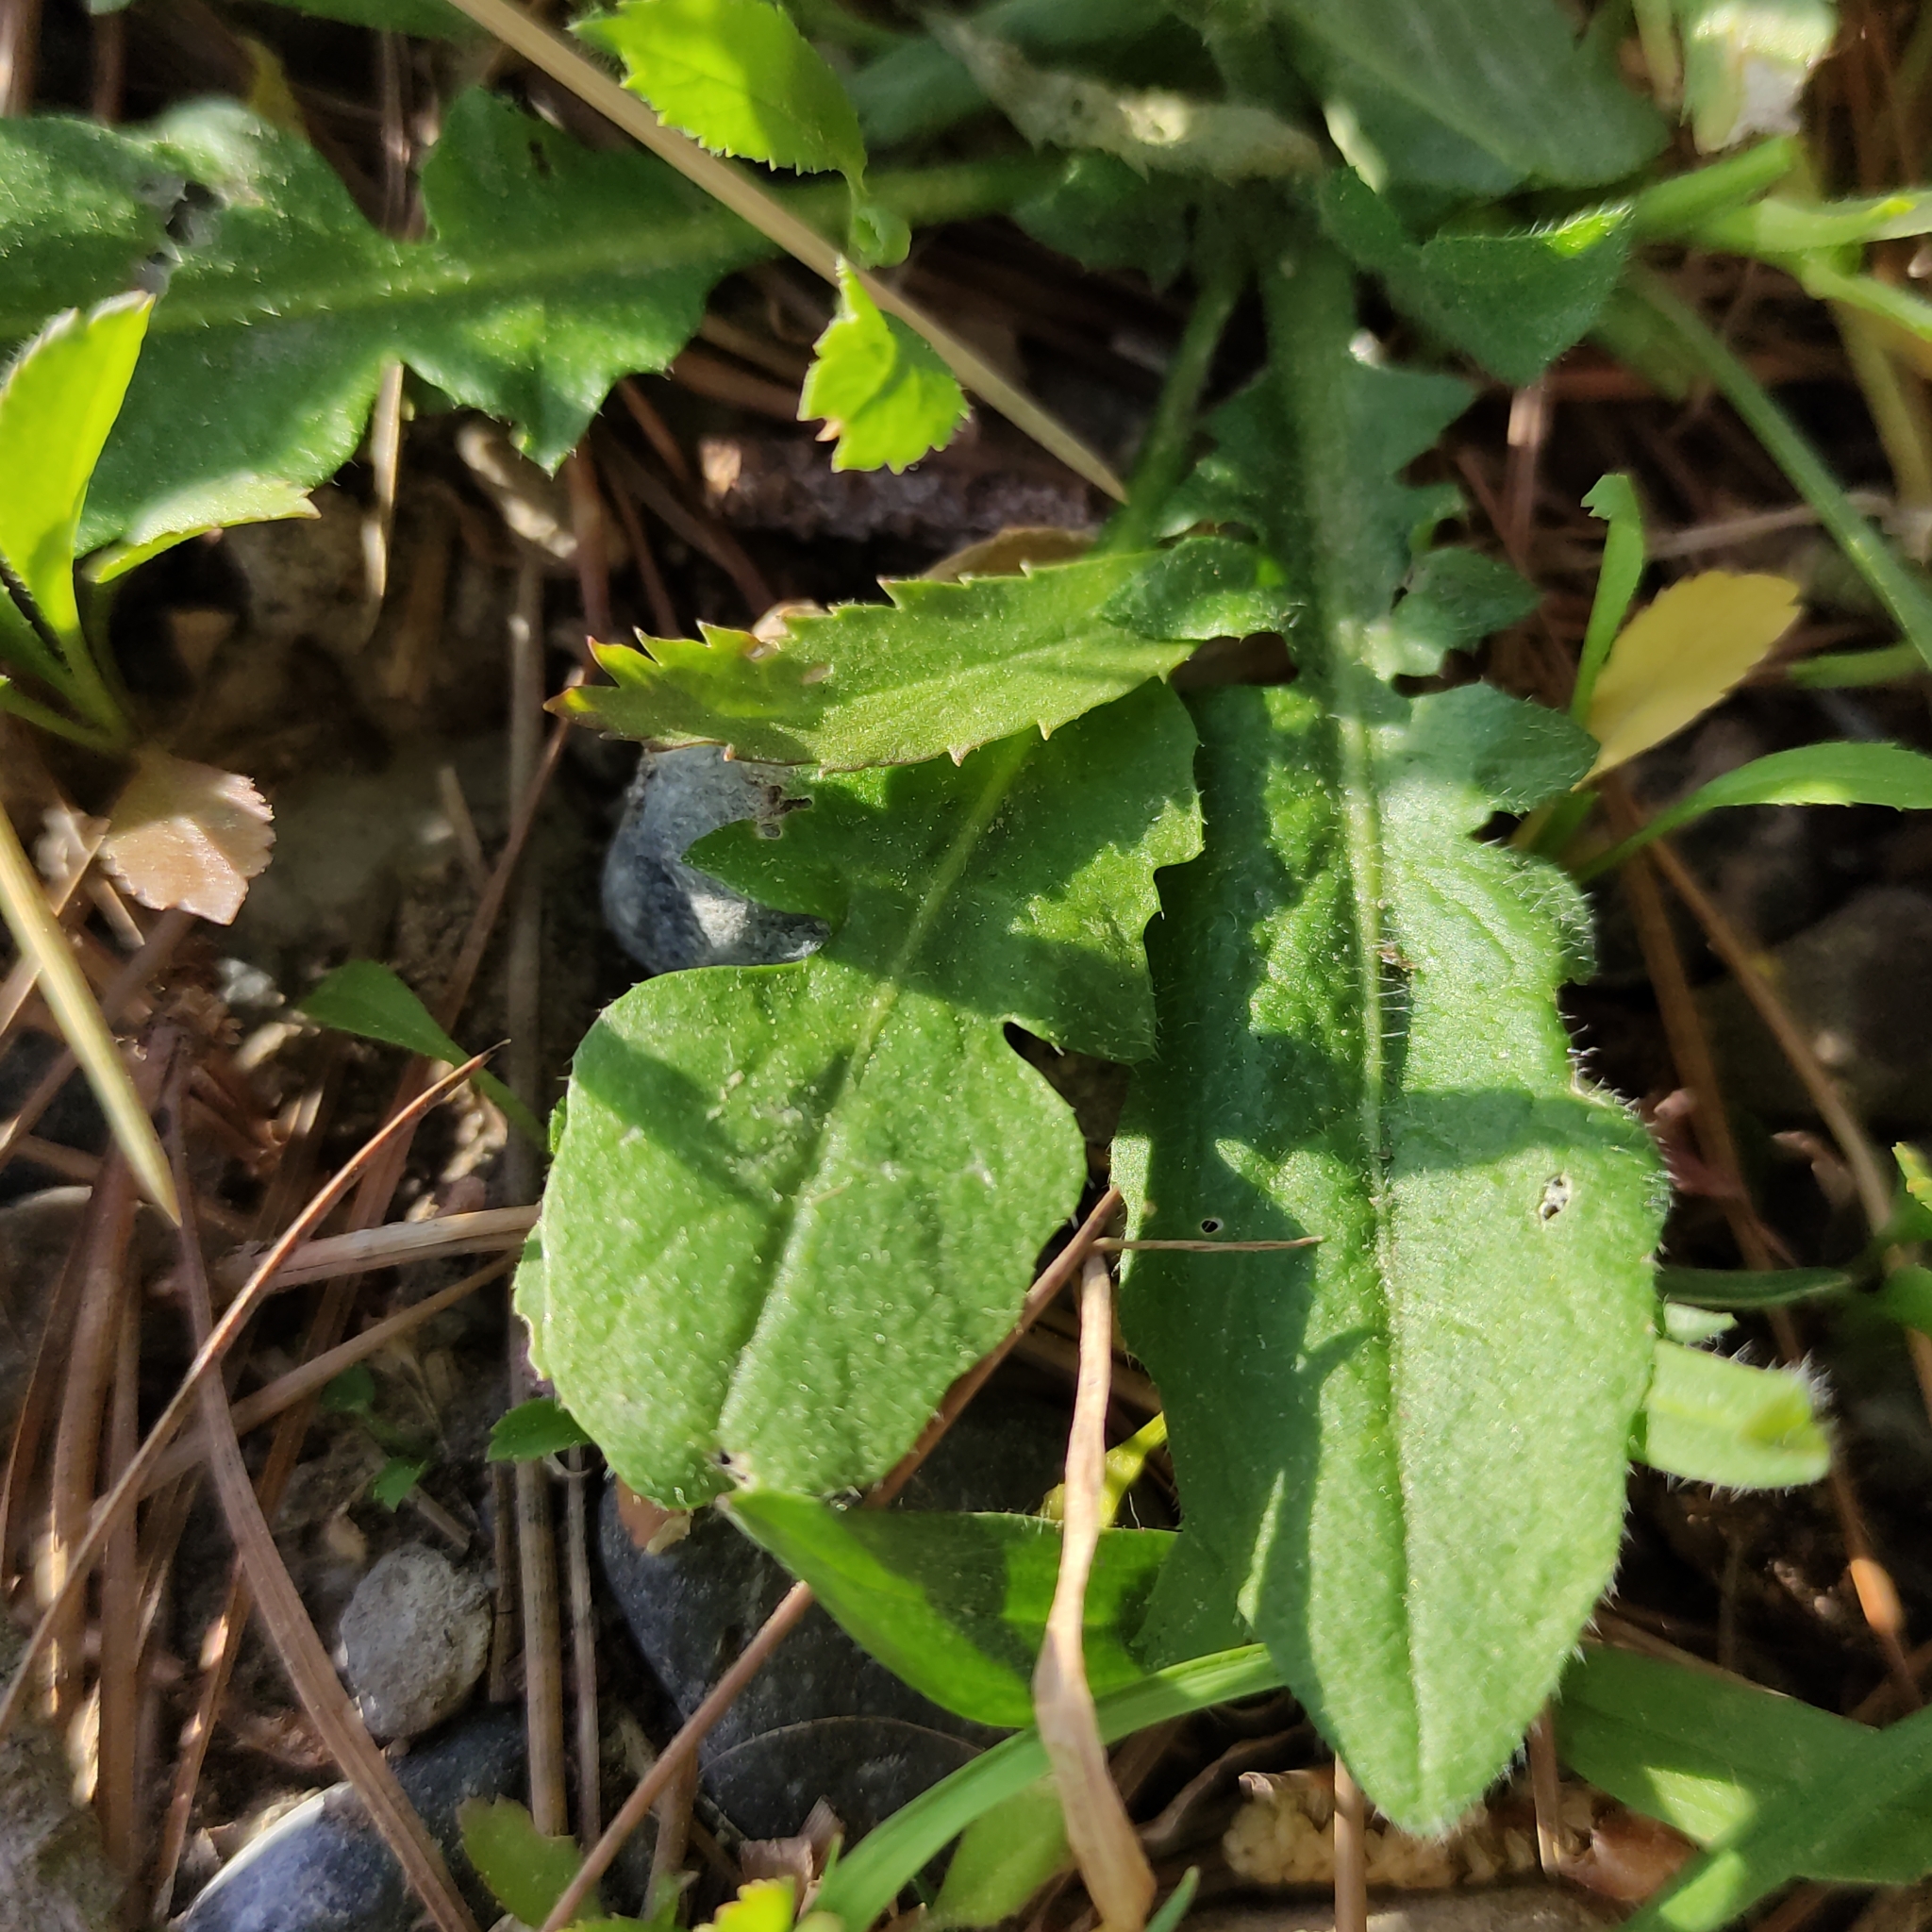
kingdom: Plantae
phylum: Tracheophyta
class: Magnoliopsida
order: Brassicales
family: Brassicaceae
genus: Capsella
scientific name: Capsella bursa-pastoris
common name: Shepherd's purse
